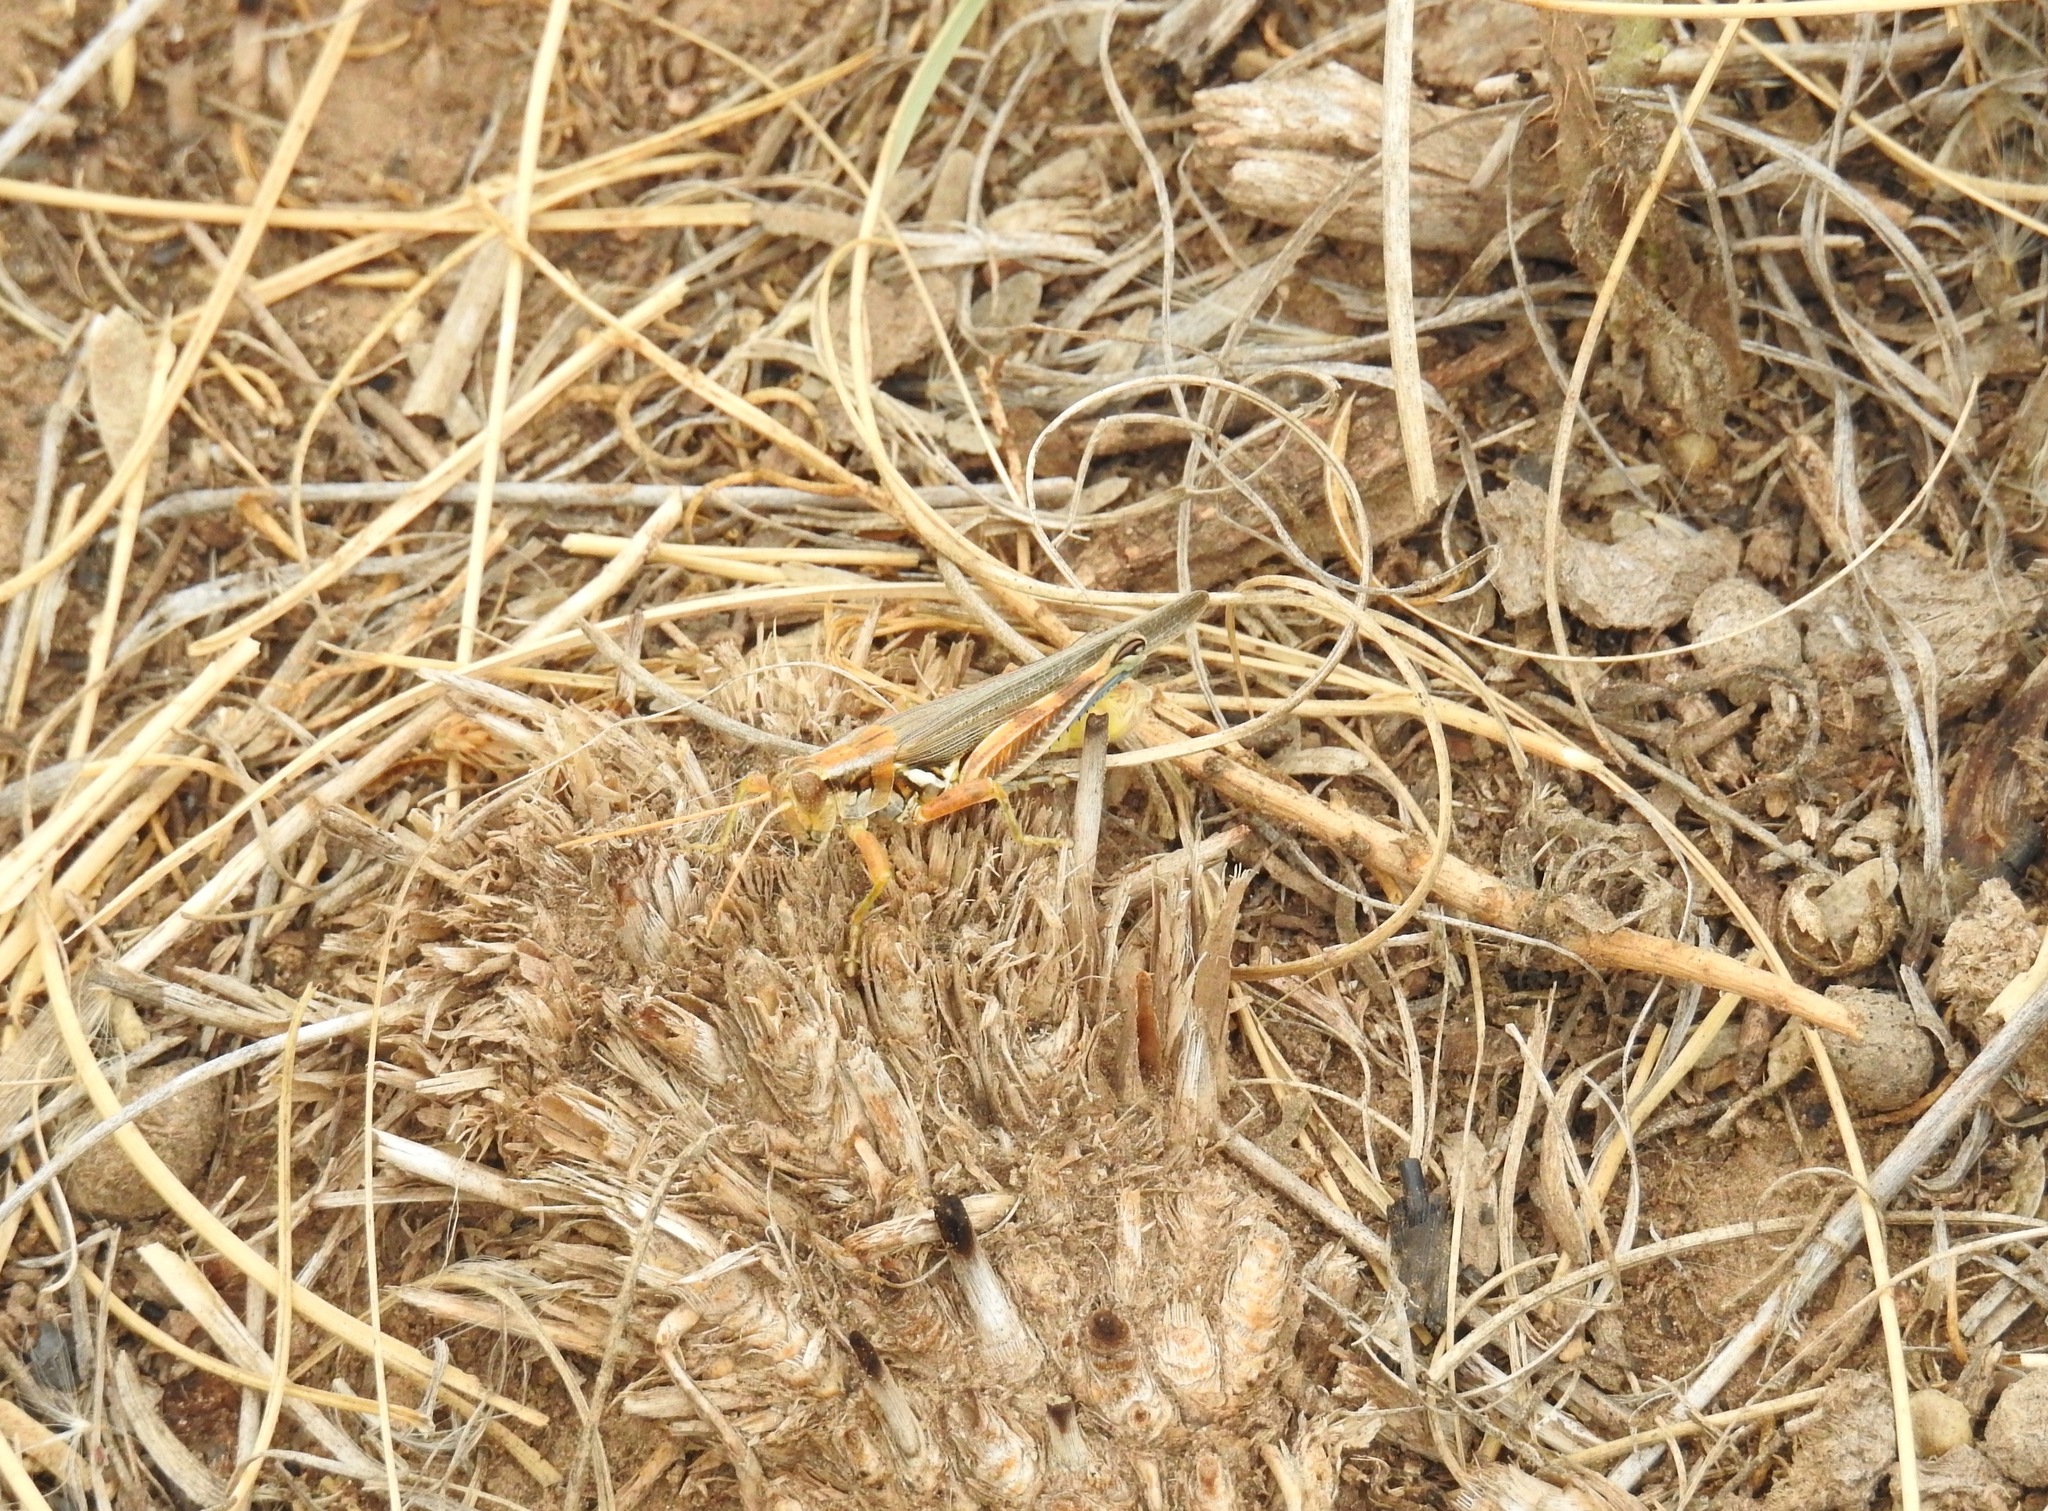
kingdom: Animalia
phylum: Arthropoda
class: Insecta
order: Orthoptera
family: Acrididae
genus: Melanoplus
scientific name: Melanoplus flavidus
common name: Blue-legged locust
